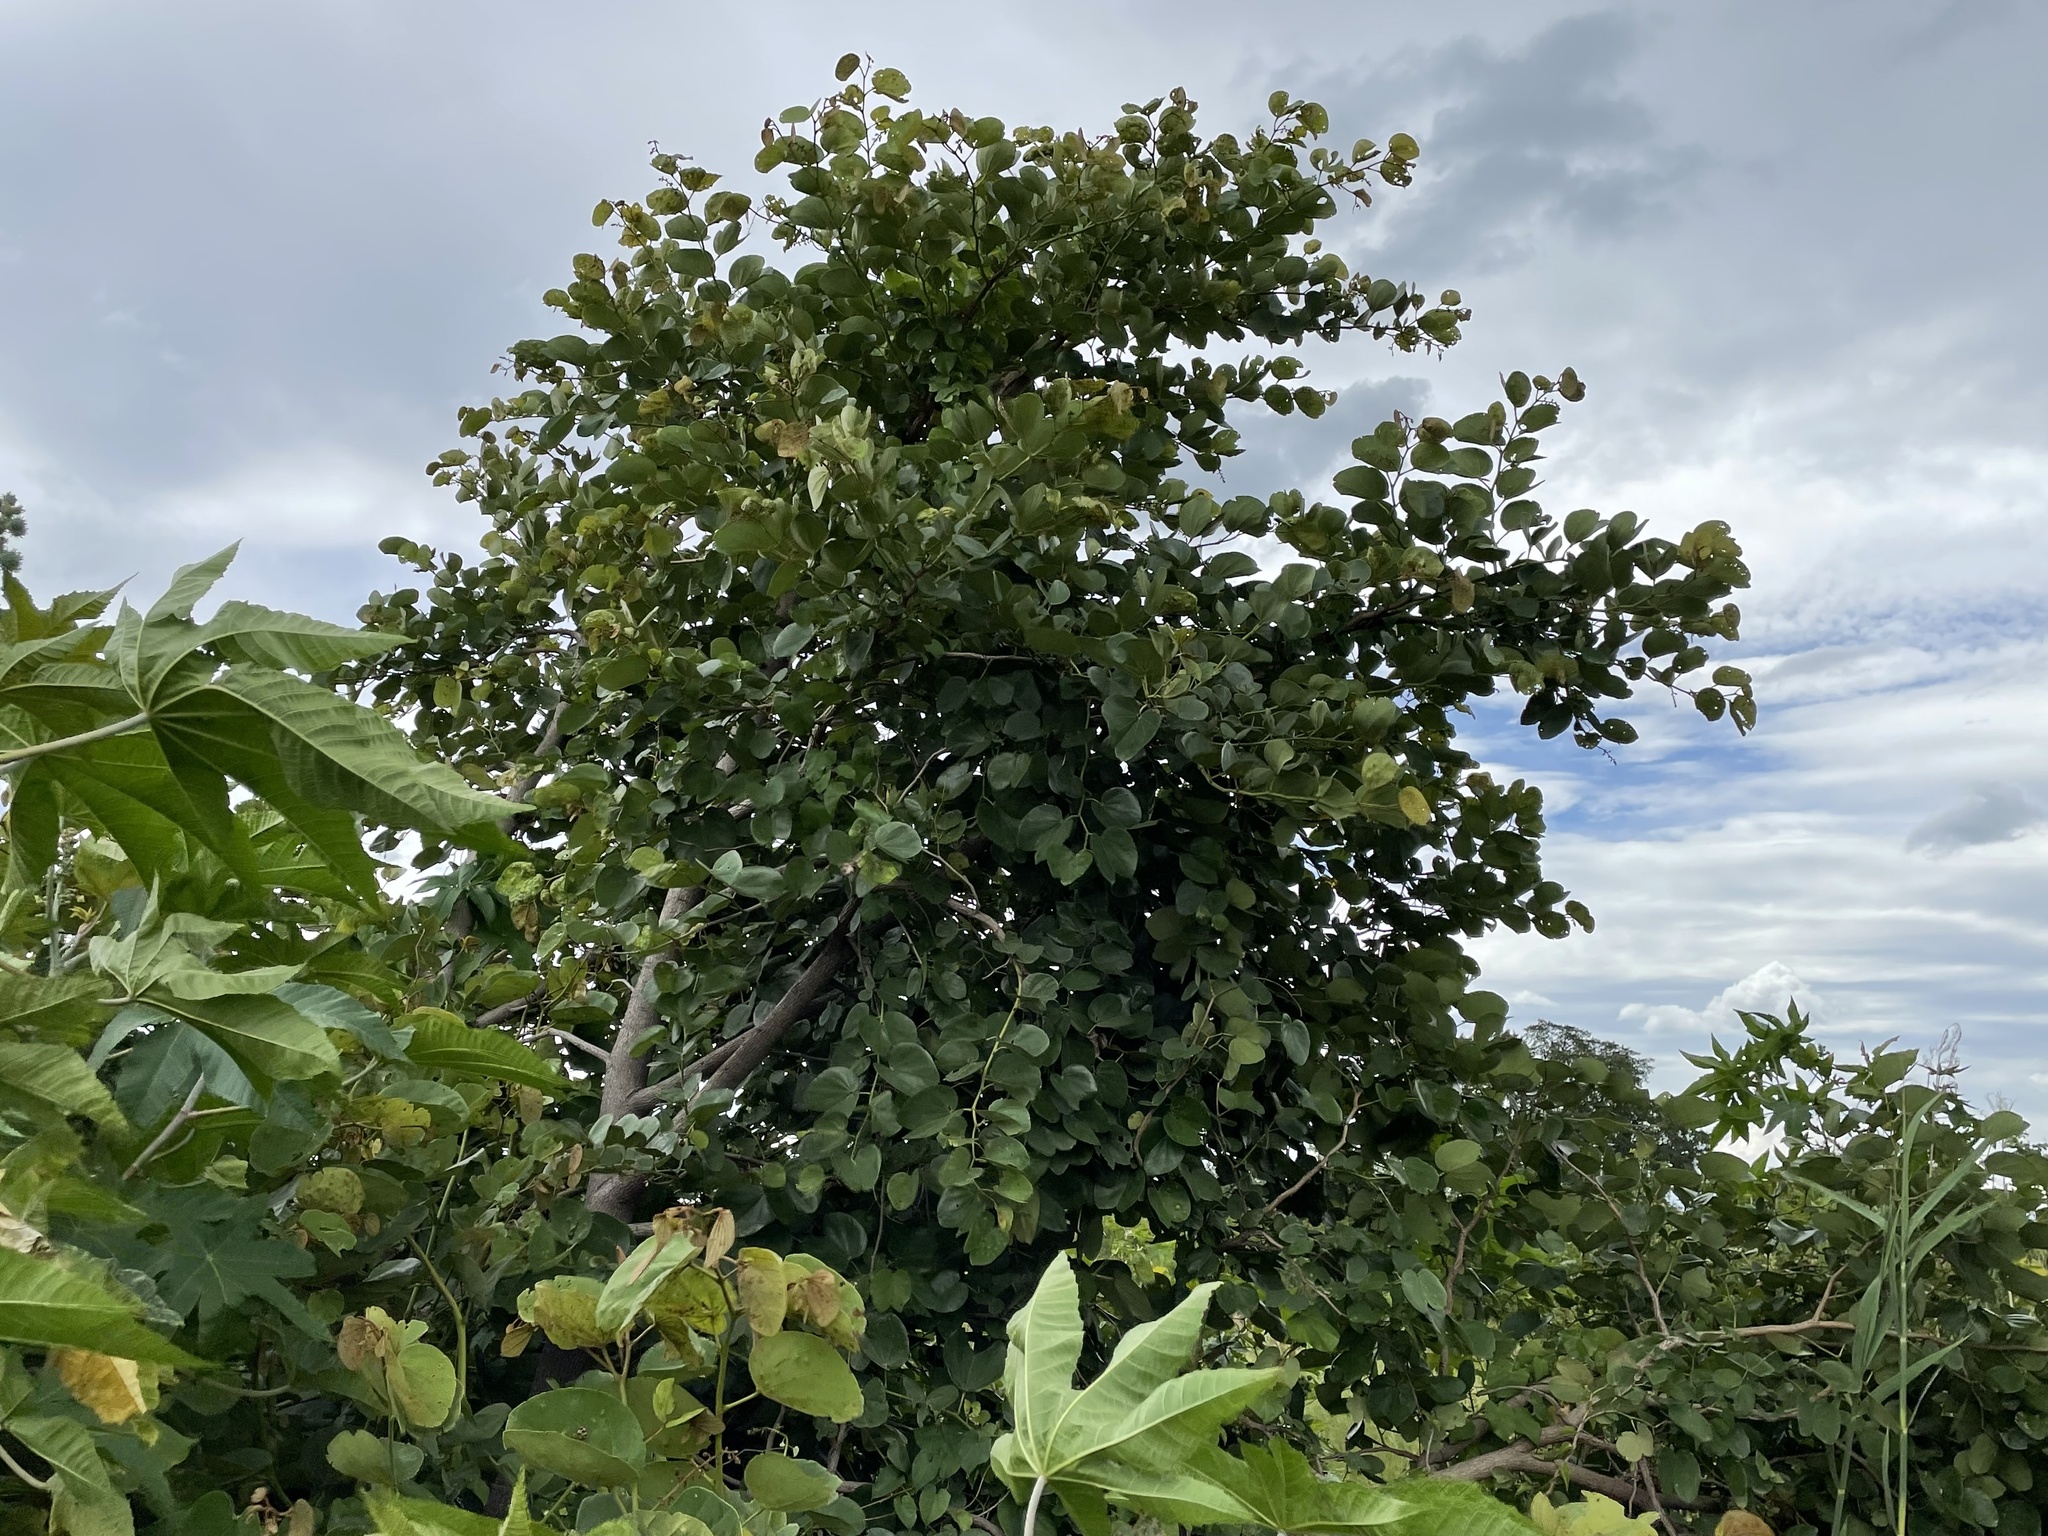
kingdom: Plantae
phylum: Tracheophyta
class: Magnoliopsida
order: Fabales
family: Fabaceae
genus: Piliostigma
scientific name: Piliostigma thonningii
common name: Kao
